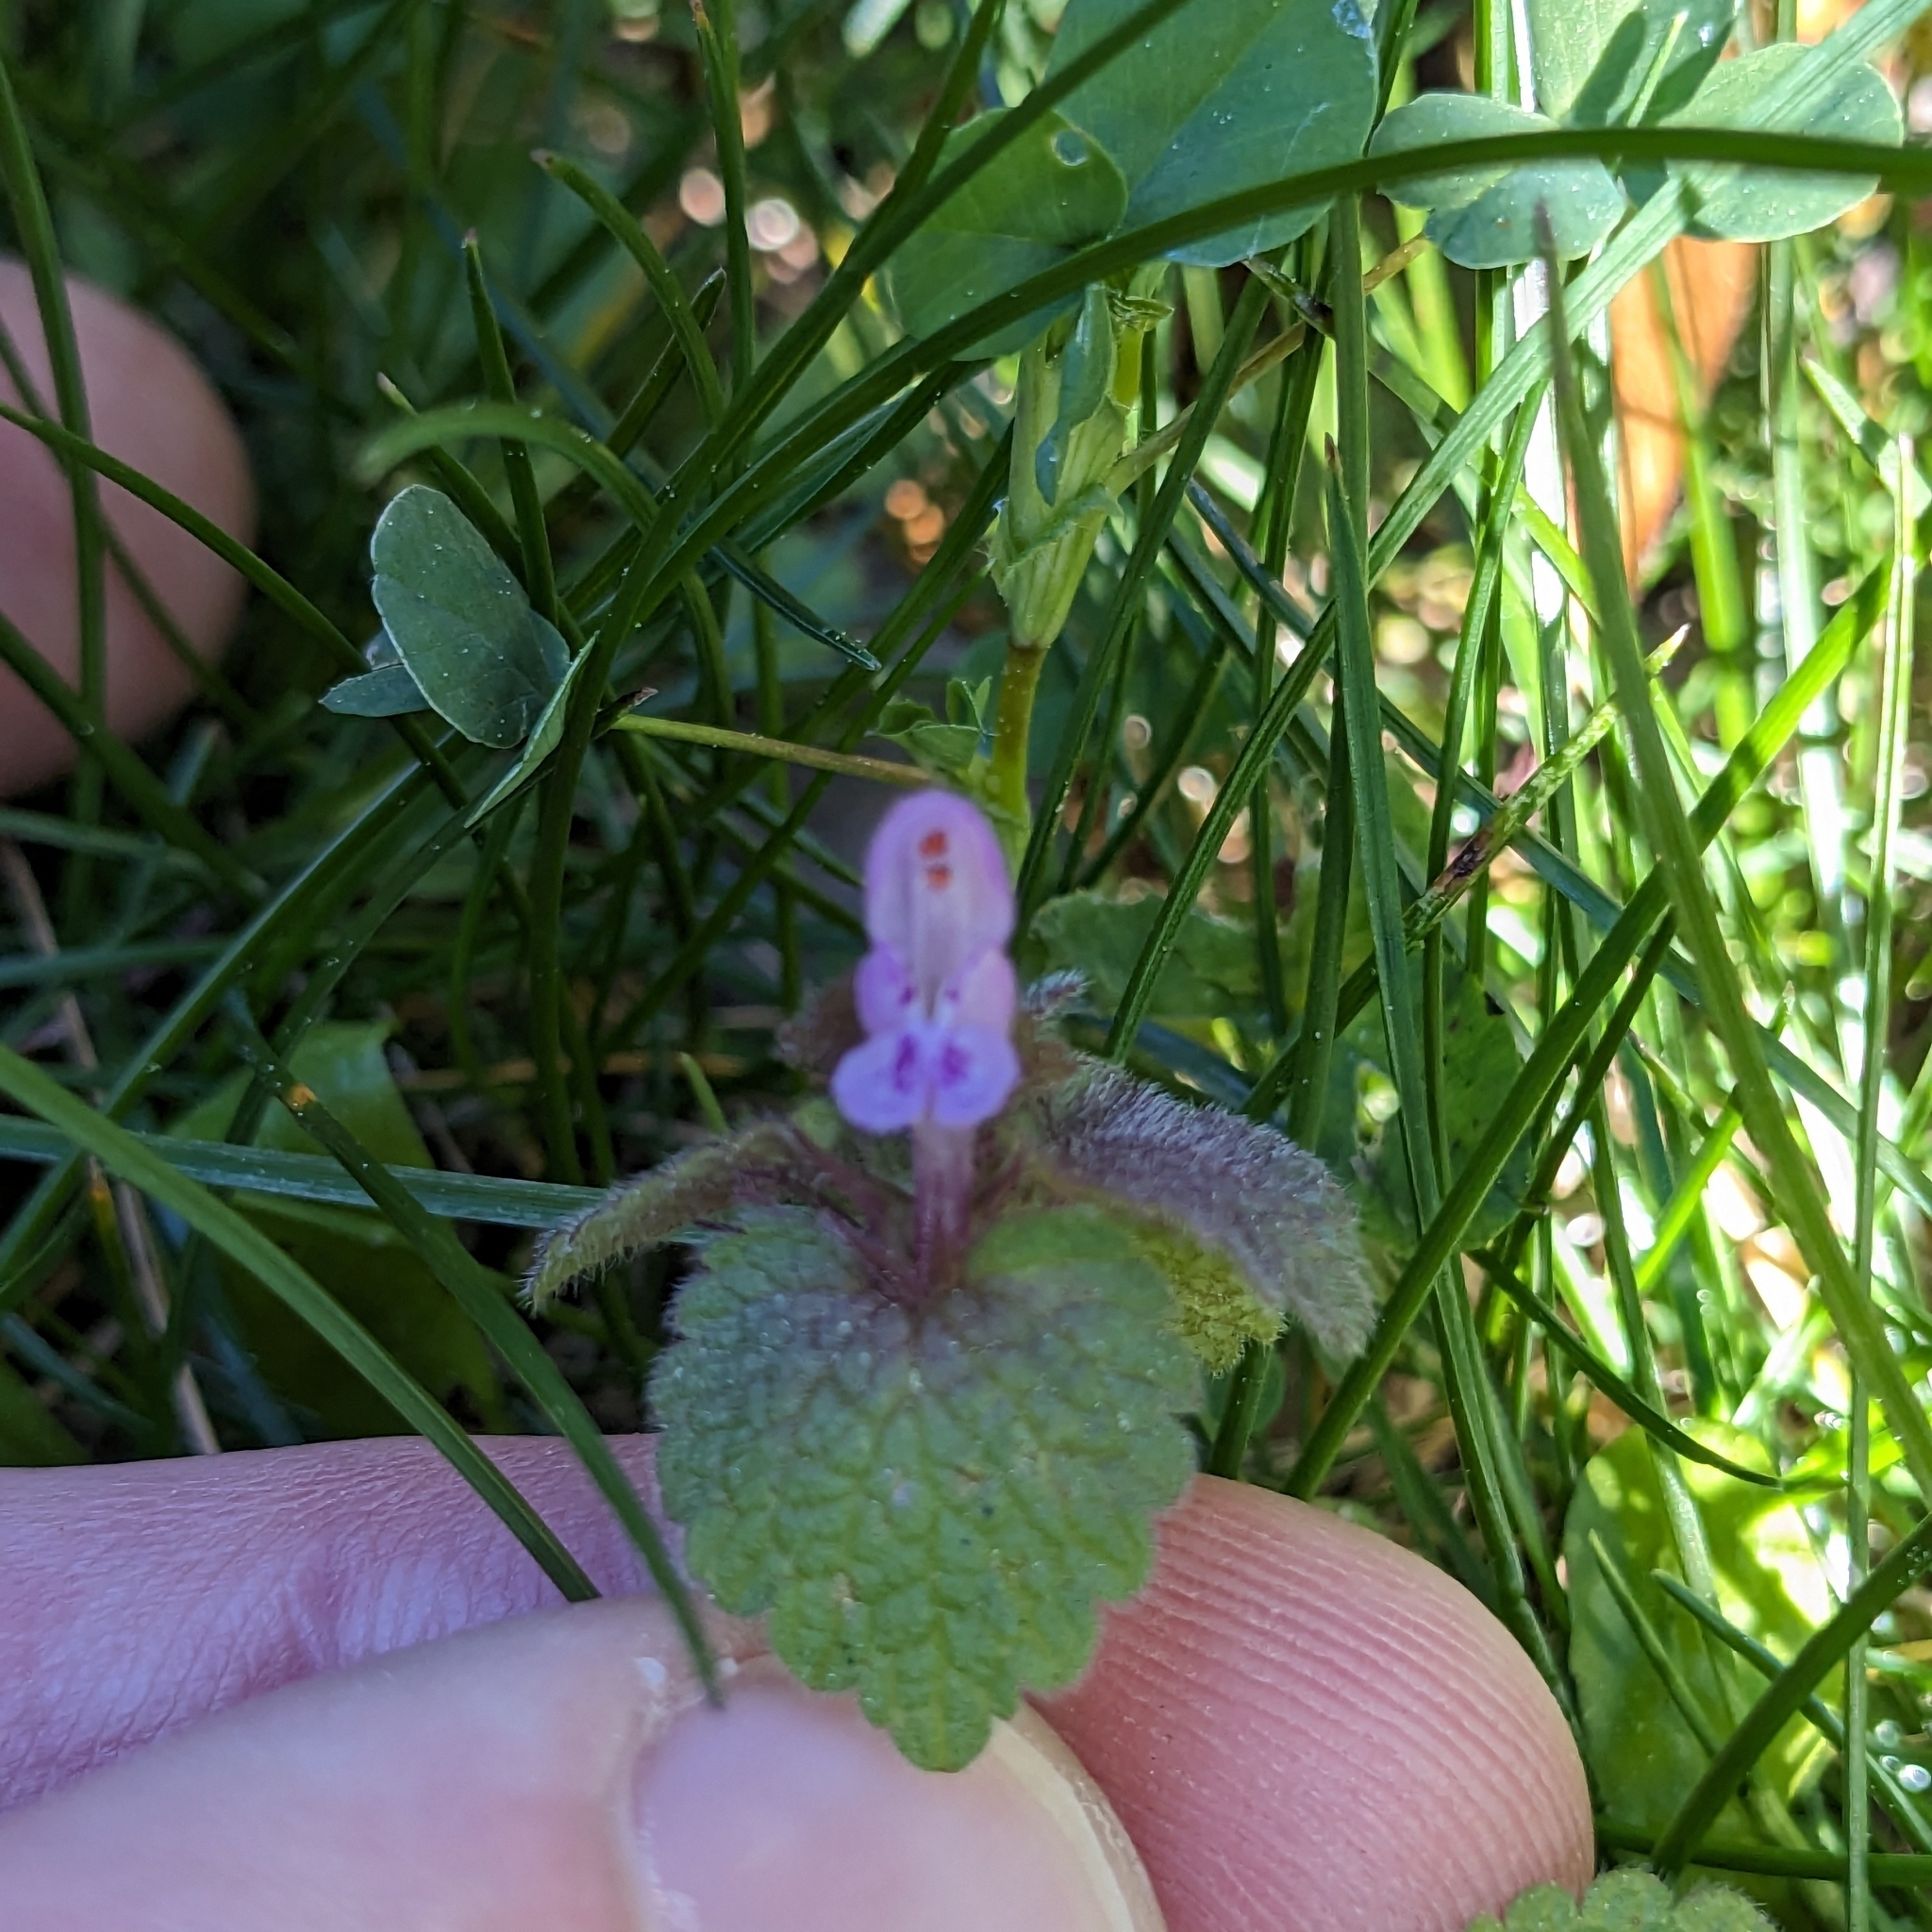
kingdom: Plantae
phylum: Tracheophyta
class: Magnoliopsida
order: Lamiales
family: Lamiaceae
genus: Lamium
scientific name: Lamium purpureum
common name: Red dead-nettle
